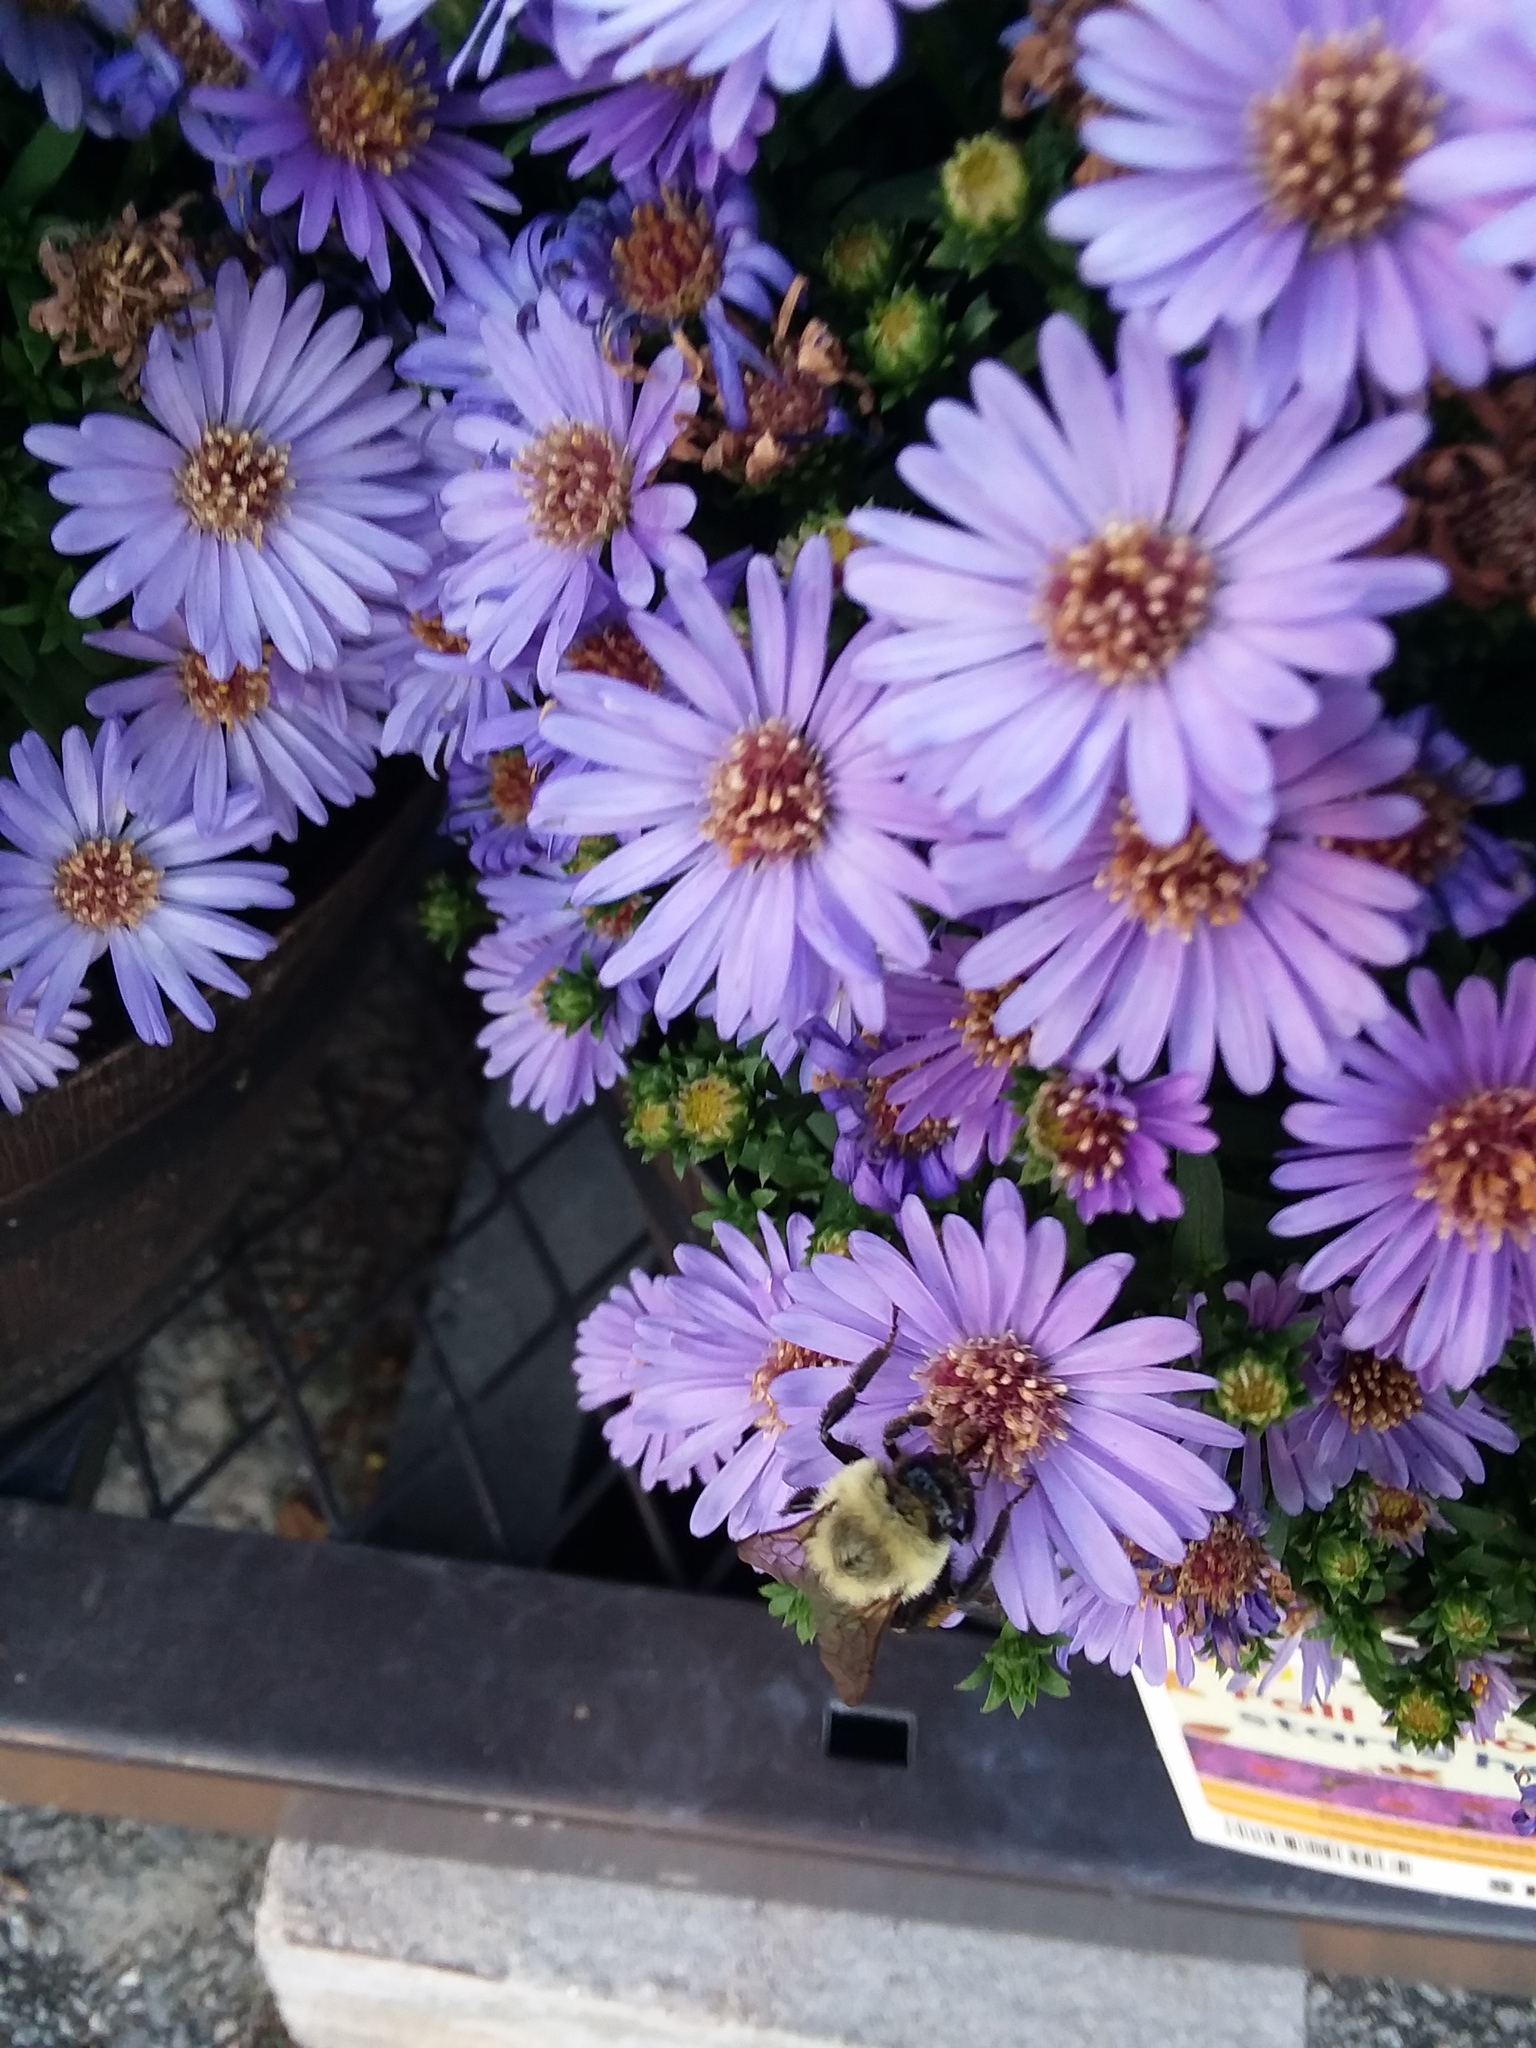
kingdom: Animalia
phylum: Arthropoda
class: Insecta
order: Hymenoptera
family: Apidae
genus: Bombus
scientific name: Bombus impatiens
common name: Common eastern bumble bee
